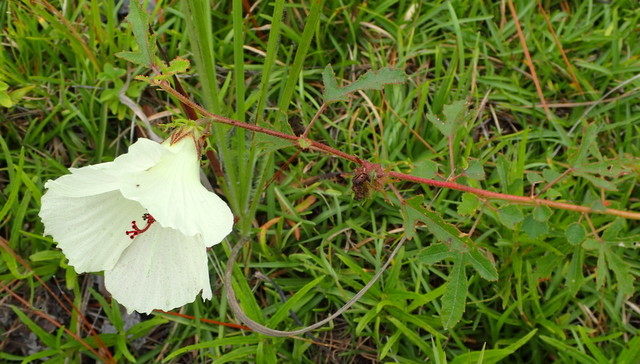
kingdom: Plantae
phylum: Tracheophyta
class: Magnoliopsida
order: Malvales
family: Malvaceae
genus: Hibiscus
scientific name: Hibiscus aculeatus
